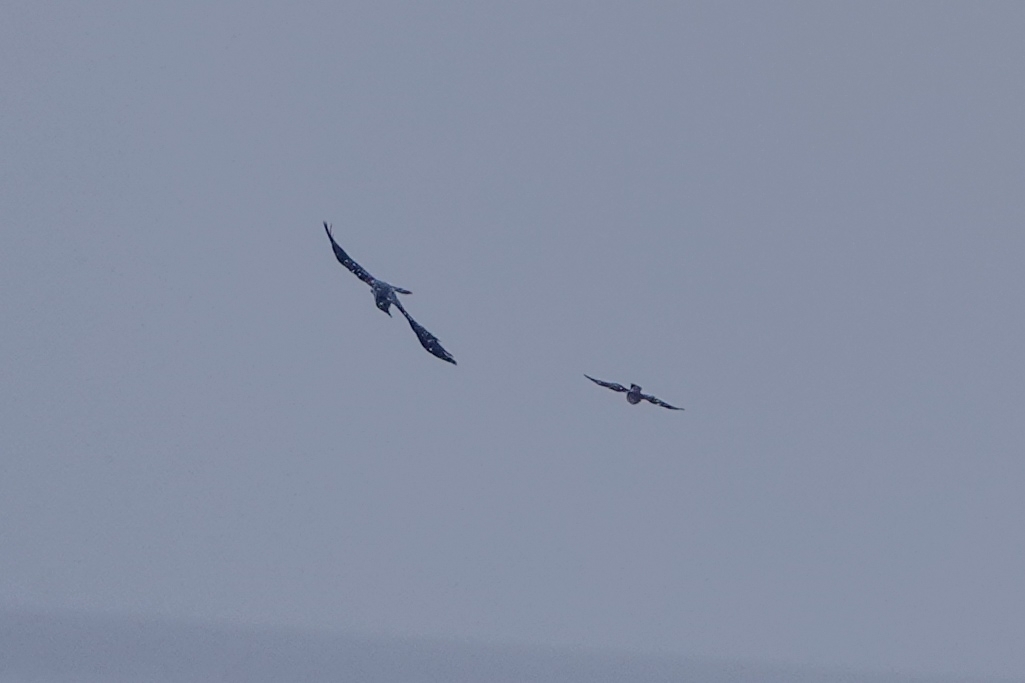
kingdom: Animalia
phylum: Chordata
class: Aves
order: Accipitriformes
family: Accipitridae
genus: Accipiter
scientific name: Accipiter nisus
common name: Eurasian sparrowhawk
